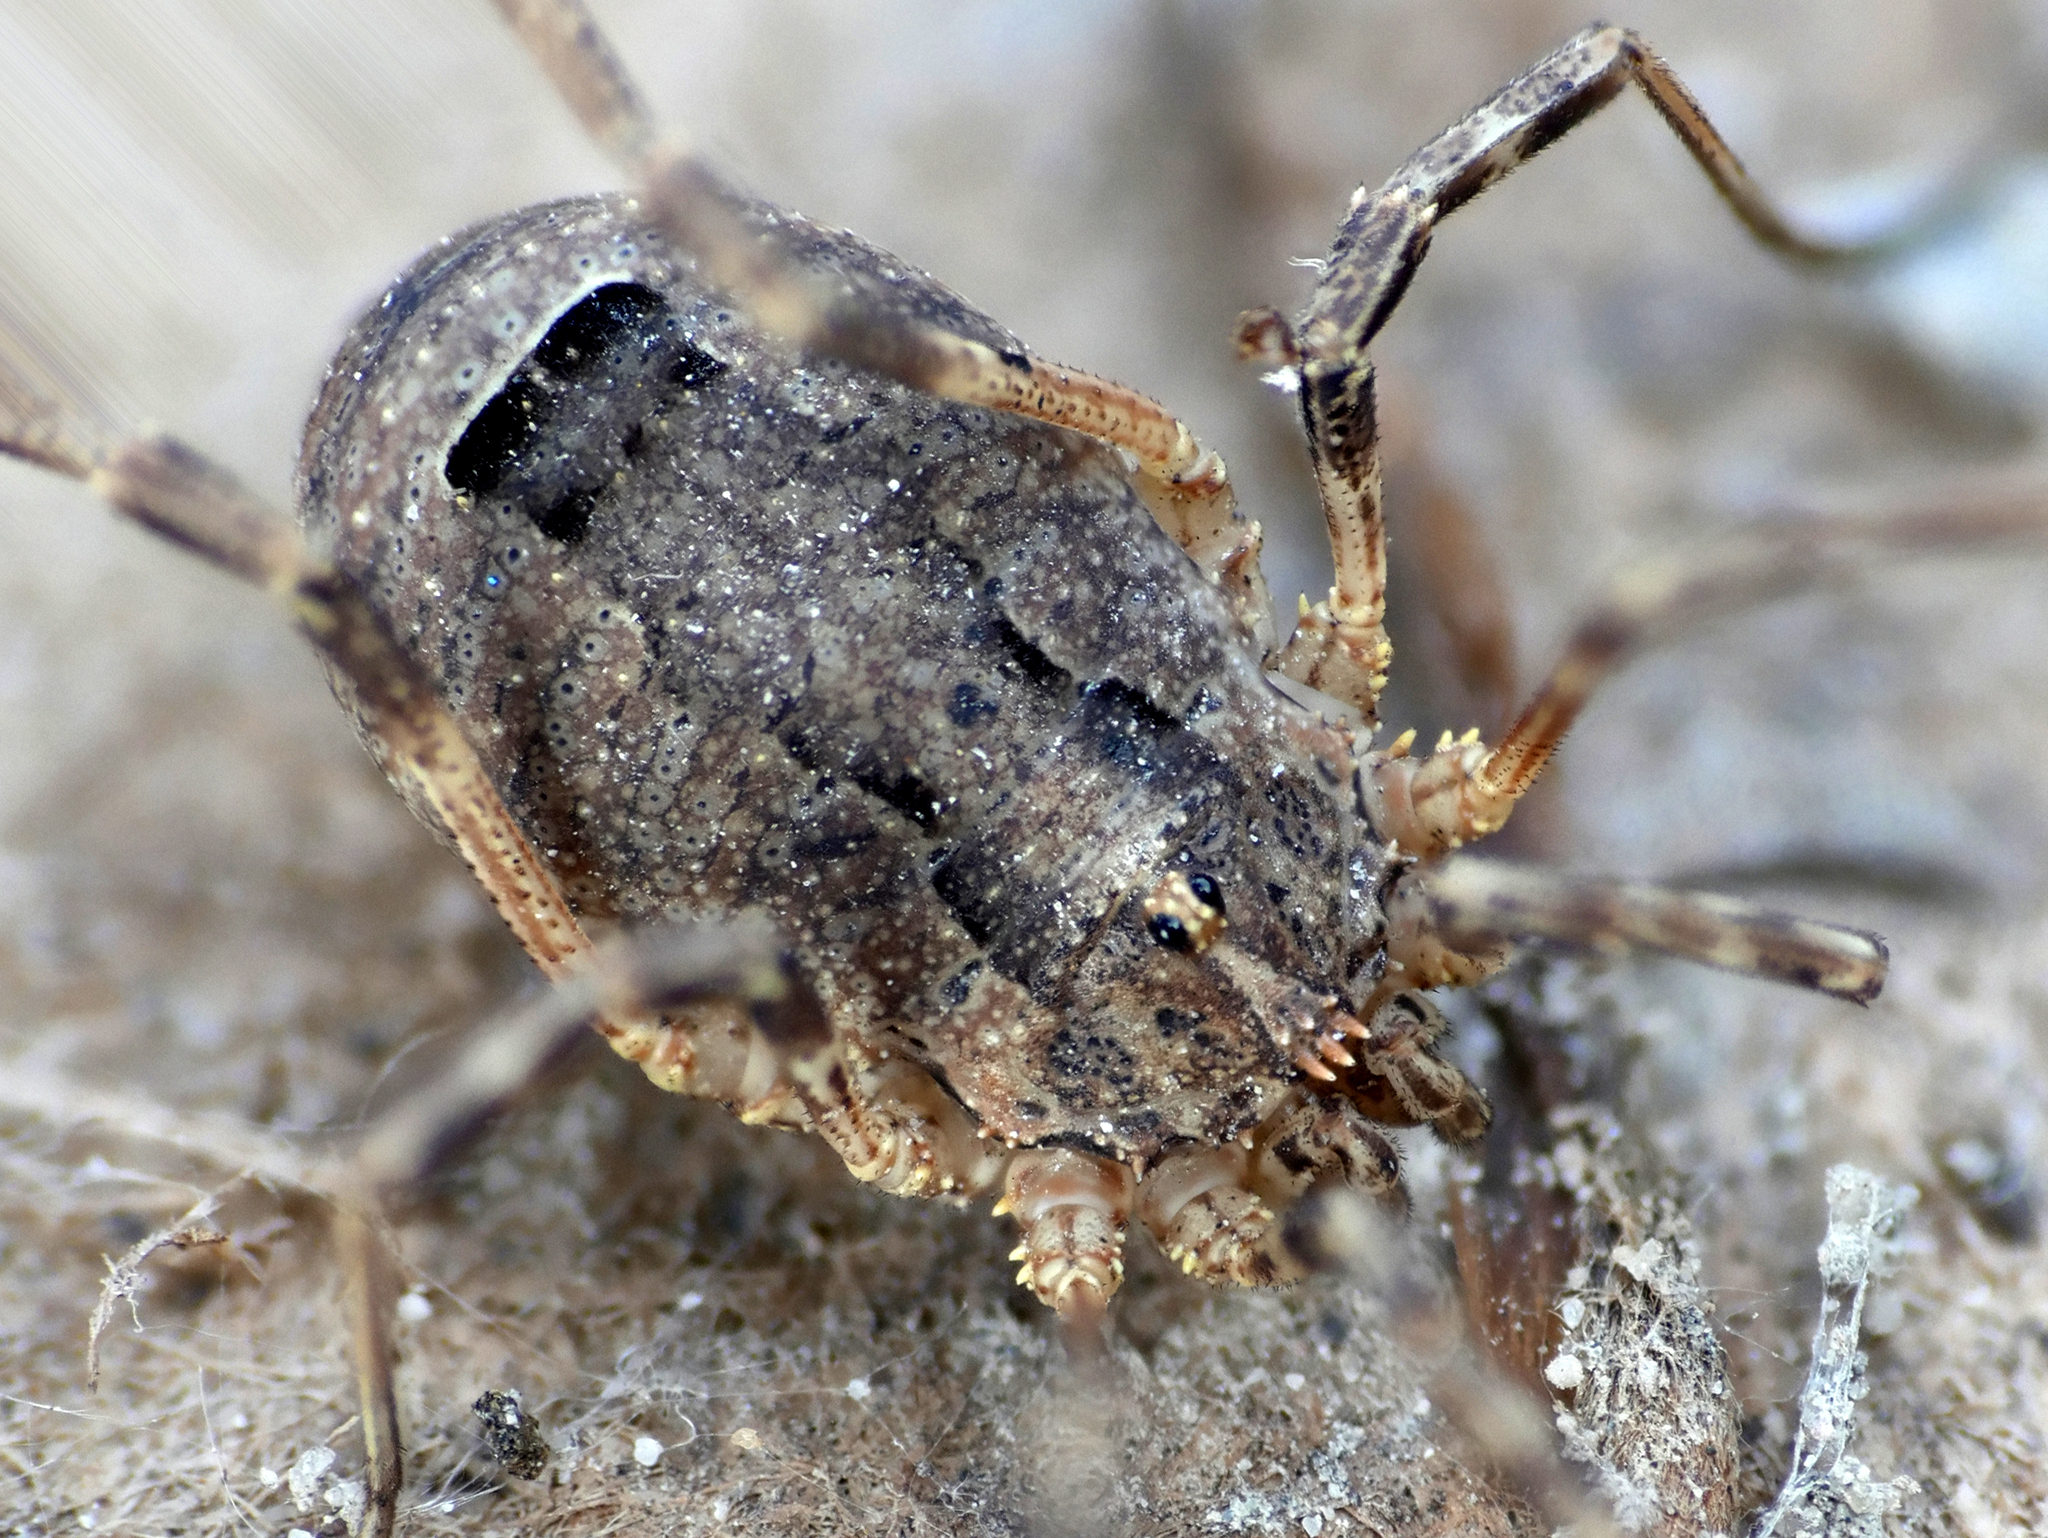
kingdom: Animalia
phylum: Arthropoda
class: Arachnida
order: Opiliones
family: Phalangiidae
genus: Odiellus
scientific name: Odiellus spinosus
